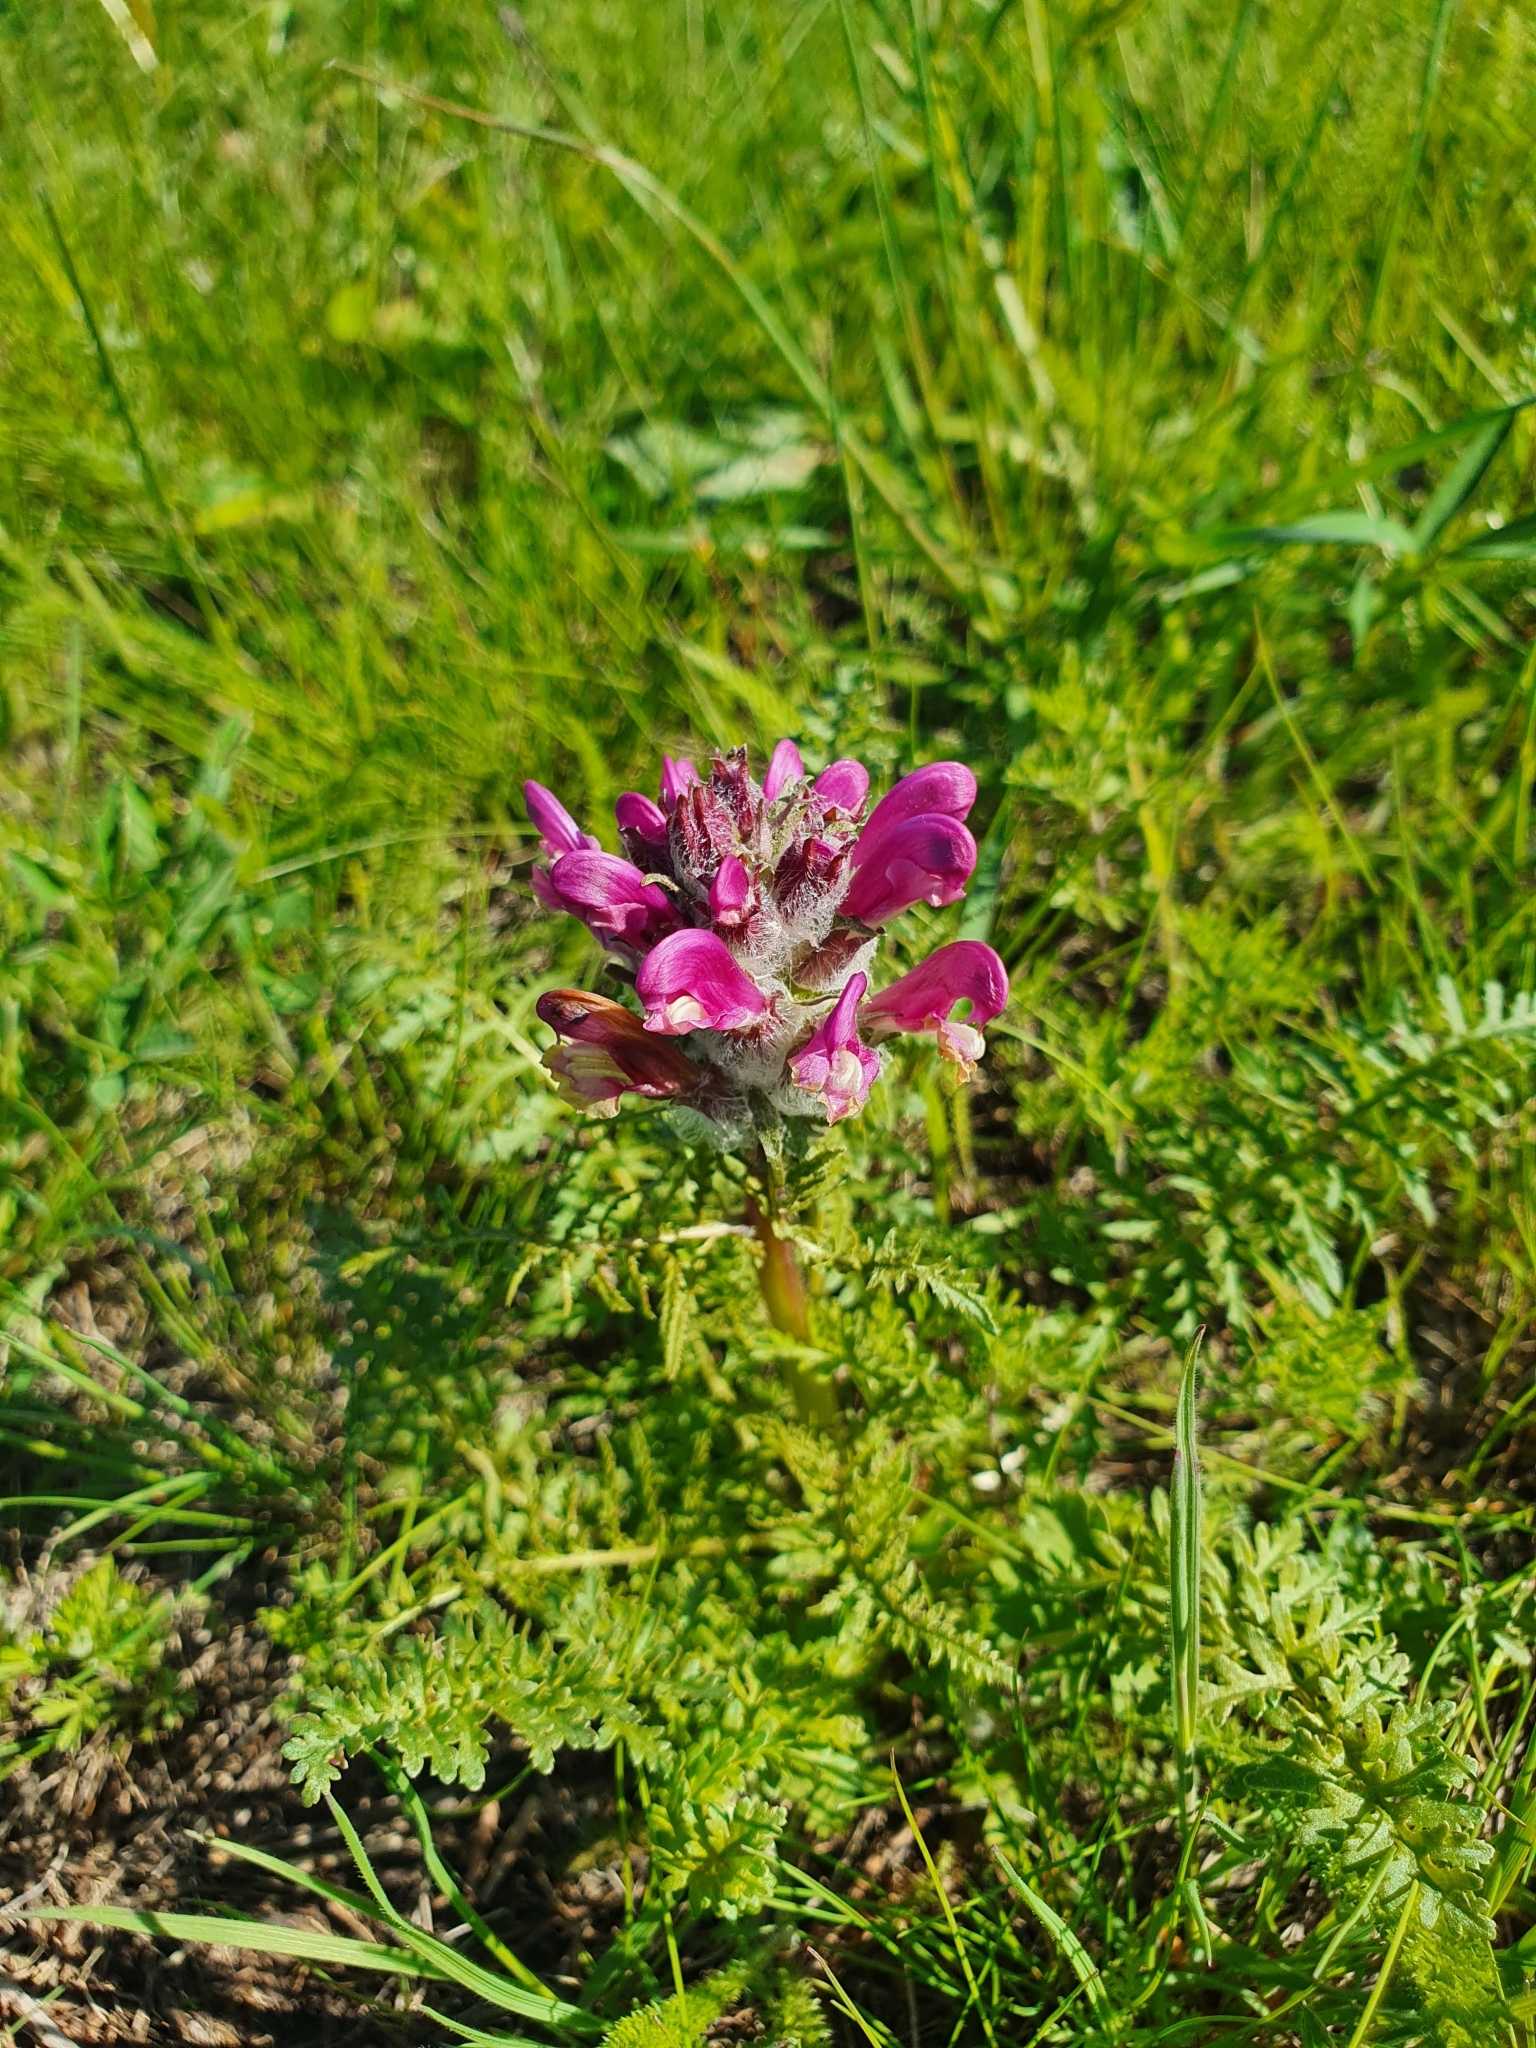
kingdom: Plantae
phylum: Tracheophyta
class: Magnoliopsida
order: Lamiales
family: Orobanchaceae
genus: Pedicularis
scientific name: Pedicularis dasystachys
